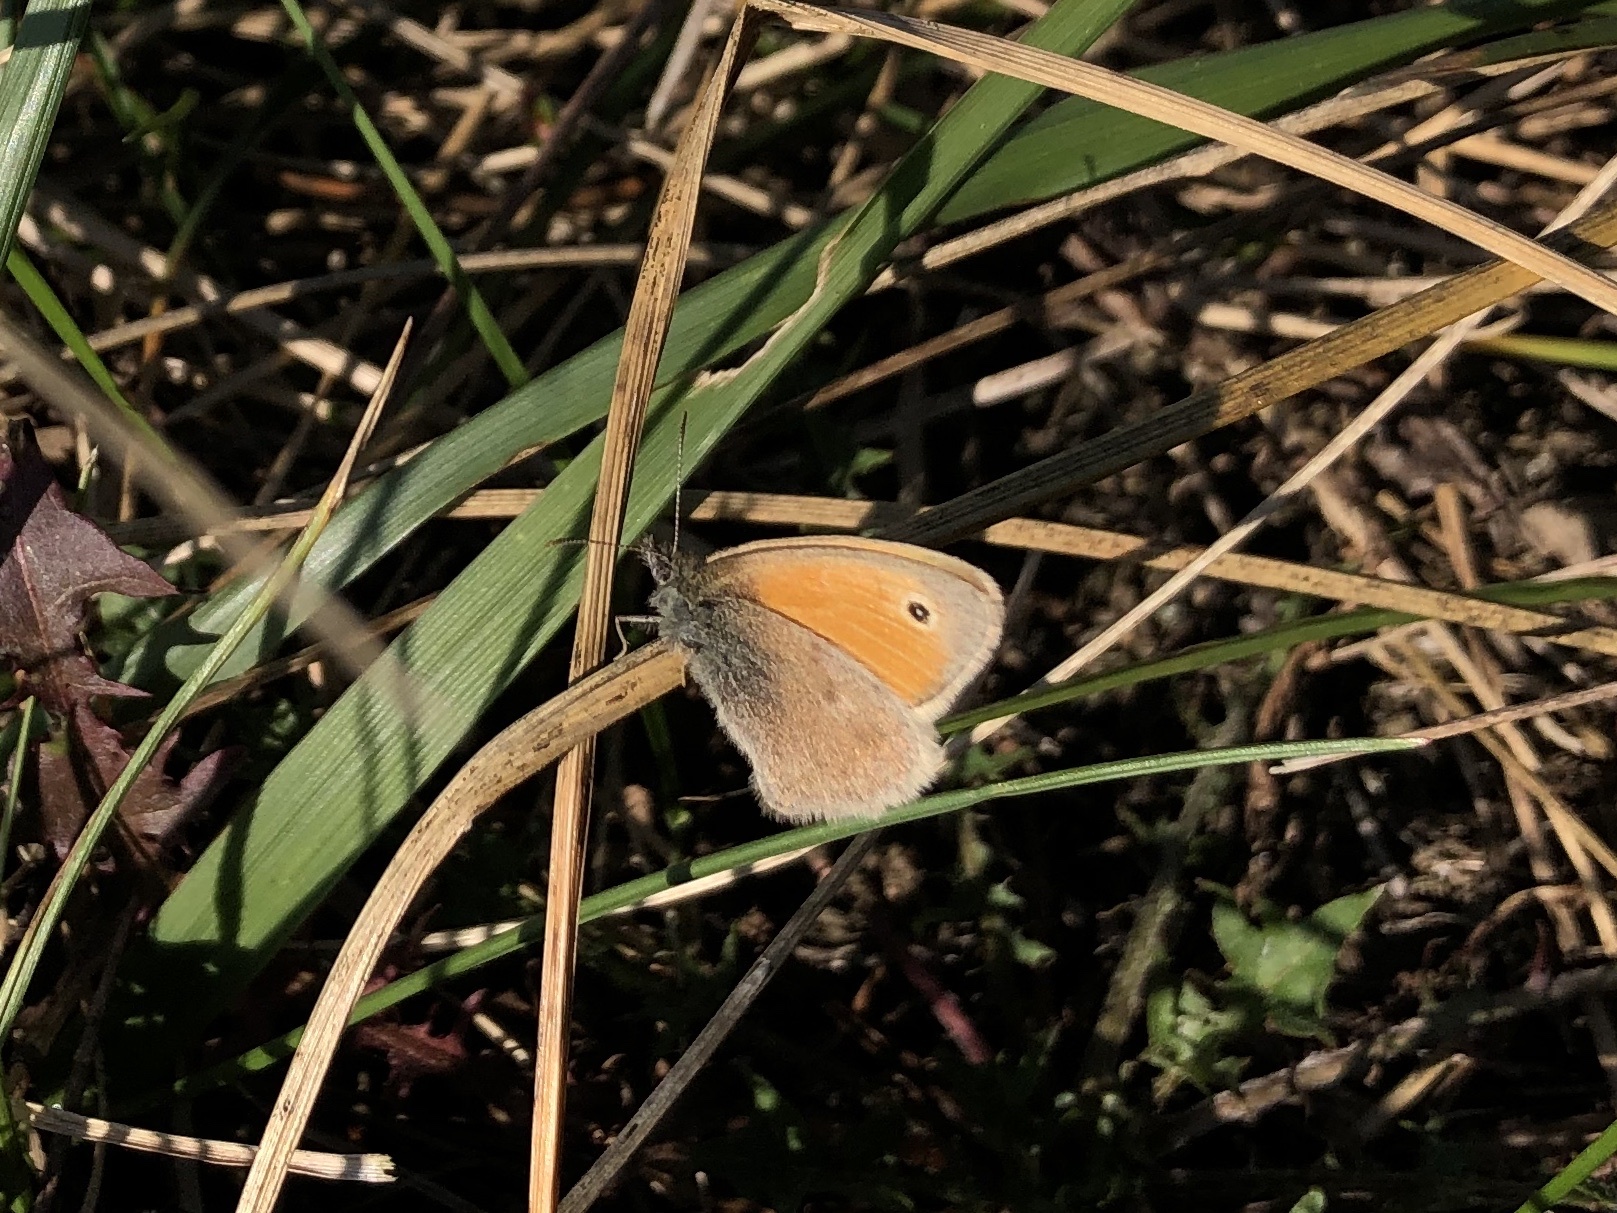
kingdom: Animalia
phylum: Arthropoda
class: Insecta
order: Lepidoptera
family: Nymphalidae
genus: Coenonympha
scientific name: Coenonympha pamphilus
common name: Small heath
